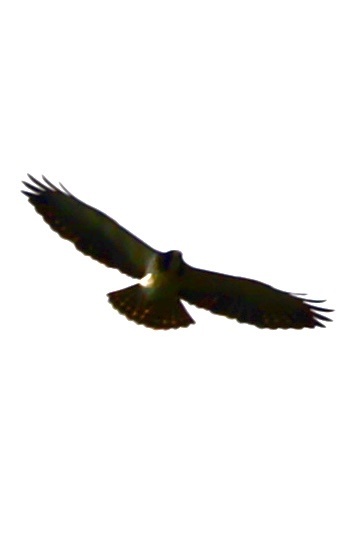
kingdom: Animalia
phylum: Chordata
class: Aves
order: Accipitriformes
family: Accipitridae
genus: Buteo
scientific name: Buteo brachyurus
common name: Short-tailed hawk
